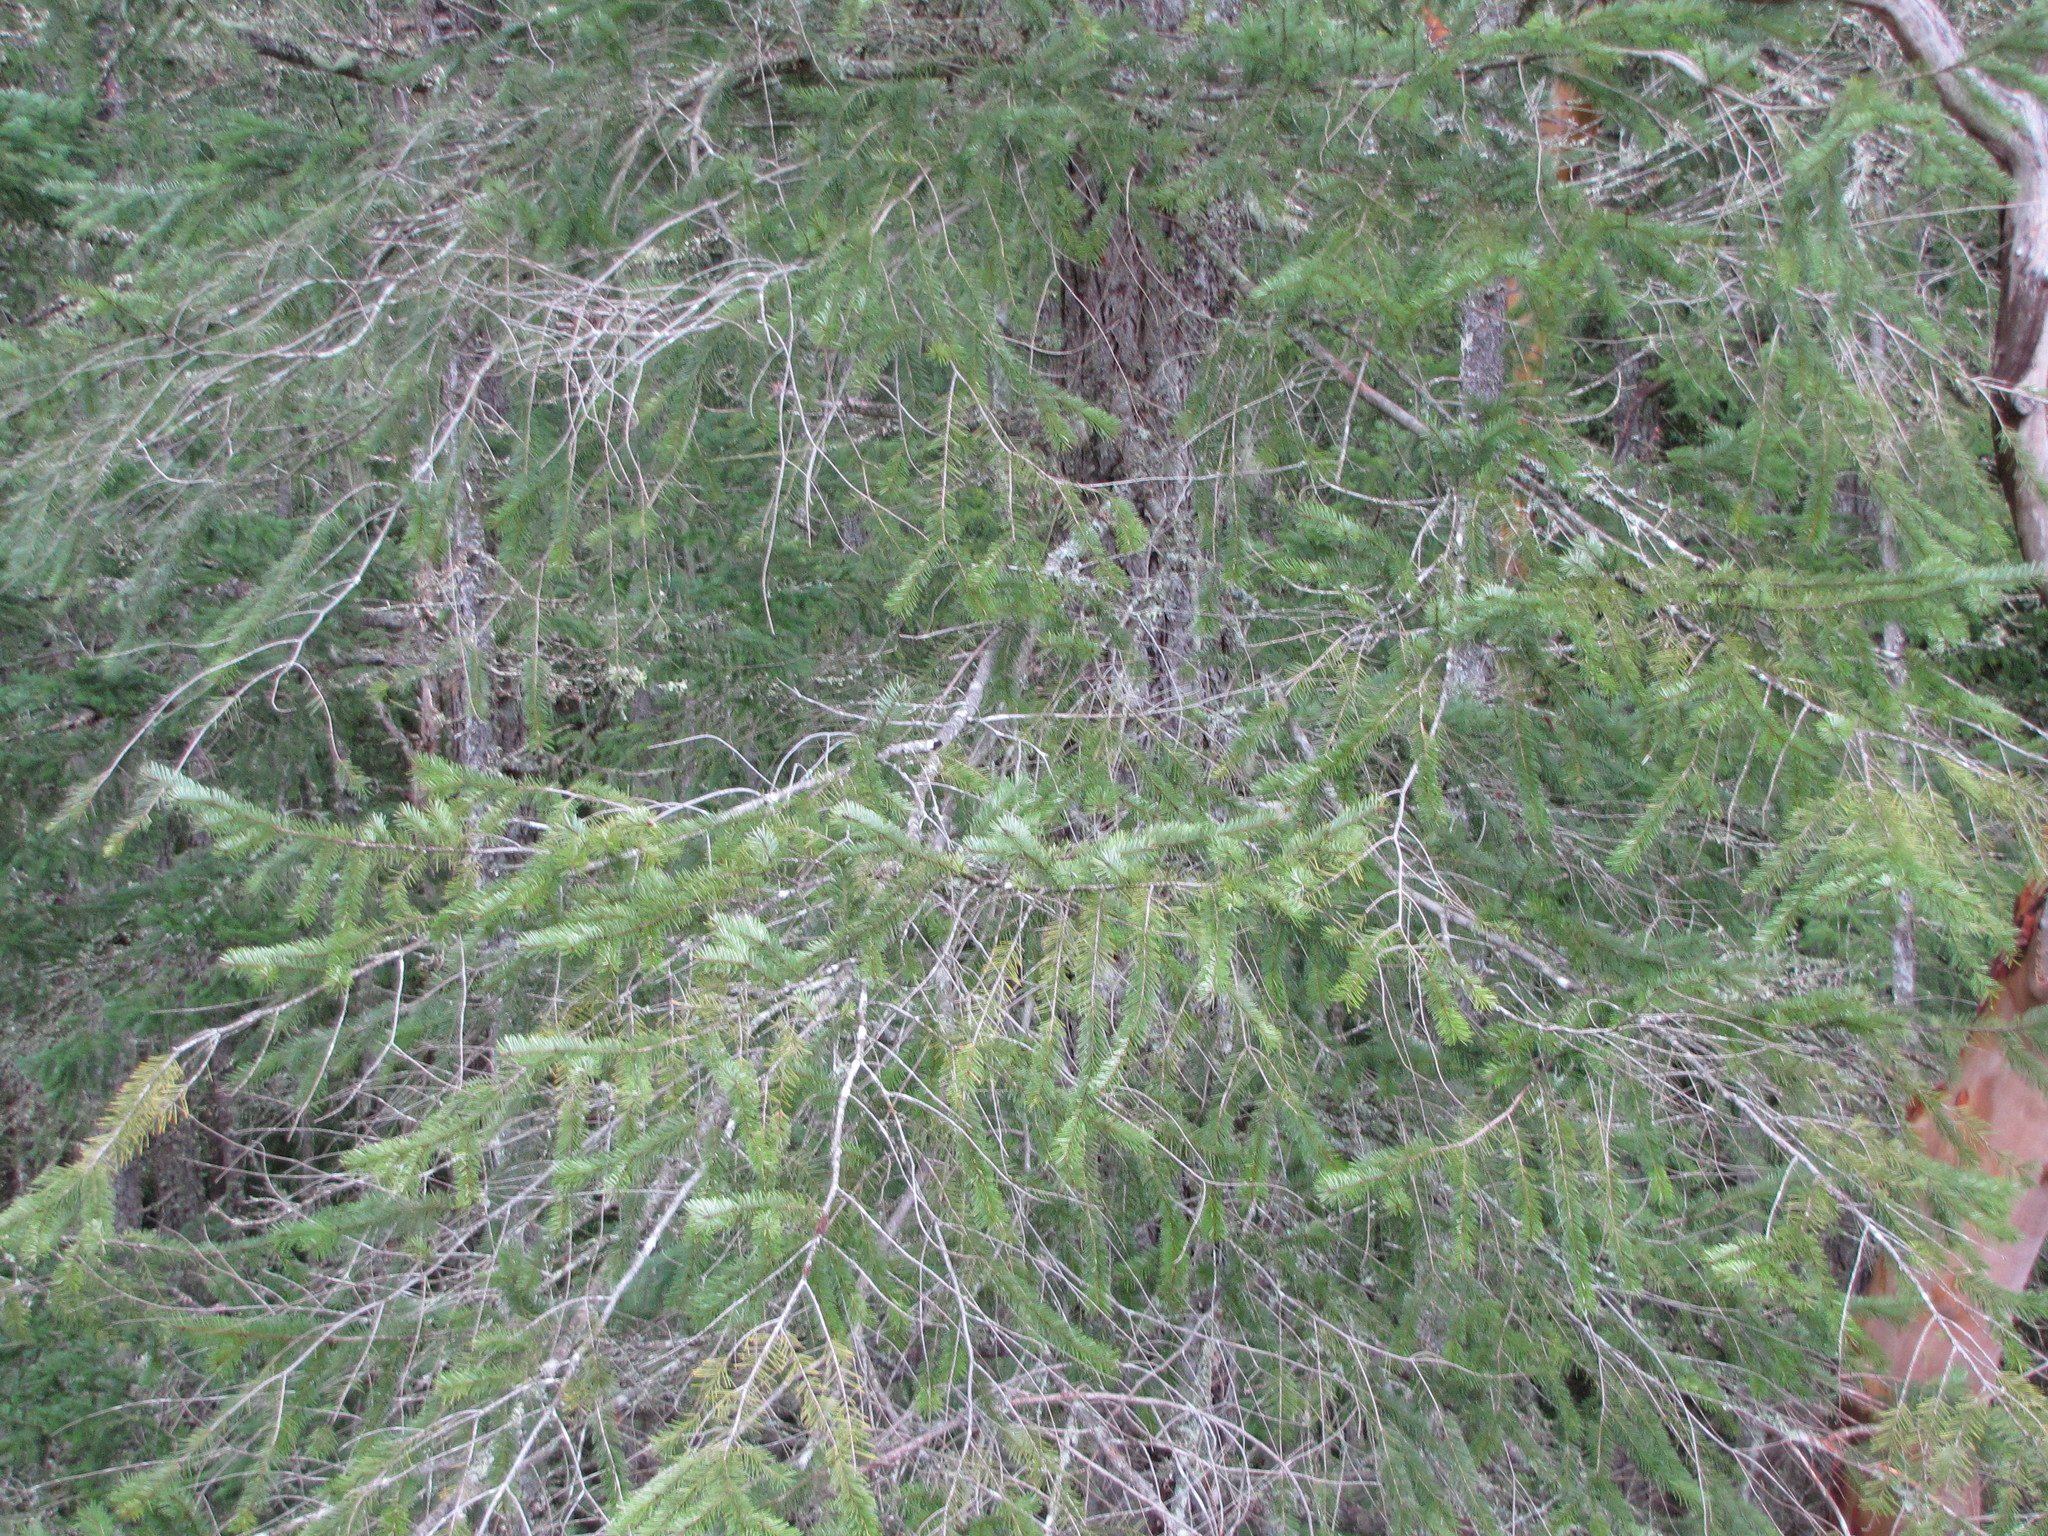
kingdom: Plantae
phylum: Tracheophyta
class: Pinopsida
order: Pinales
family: Pinaceae
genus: Pseudotsuga
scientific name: Pseudotsuga menziesii
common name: Douglas fir
